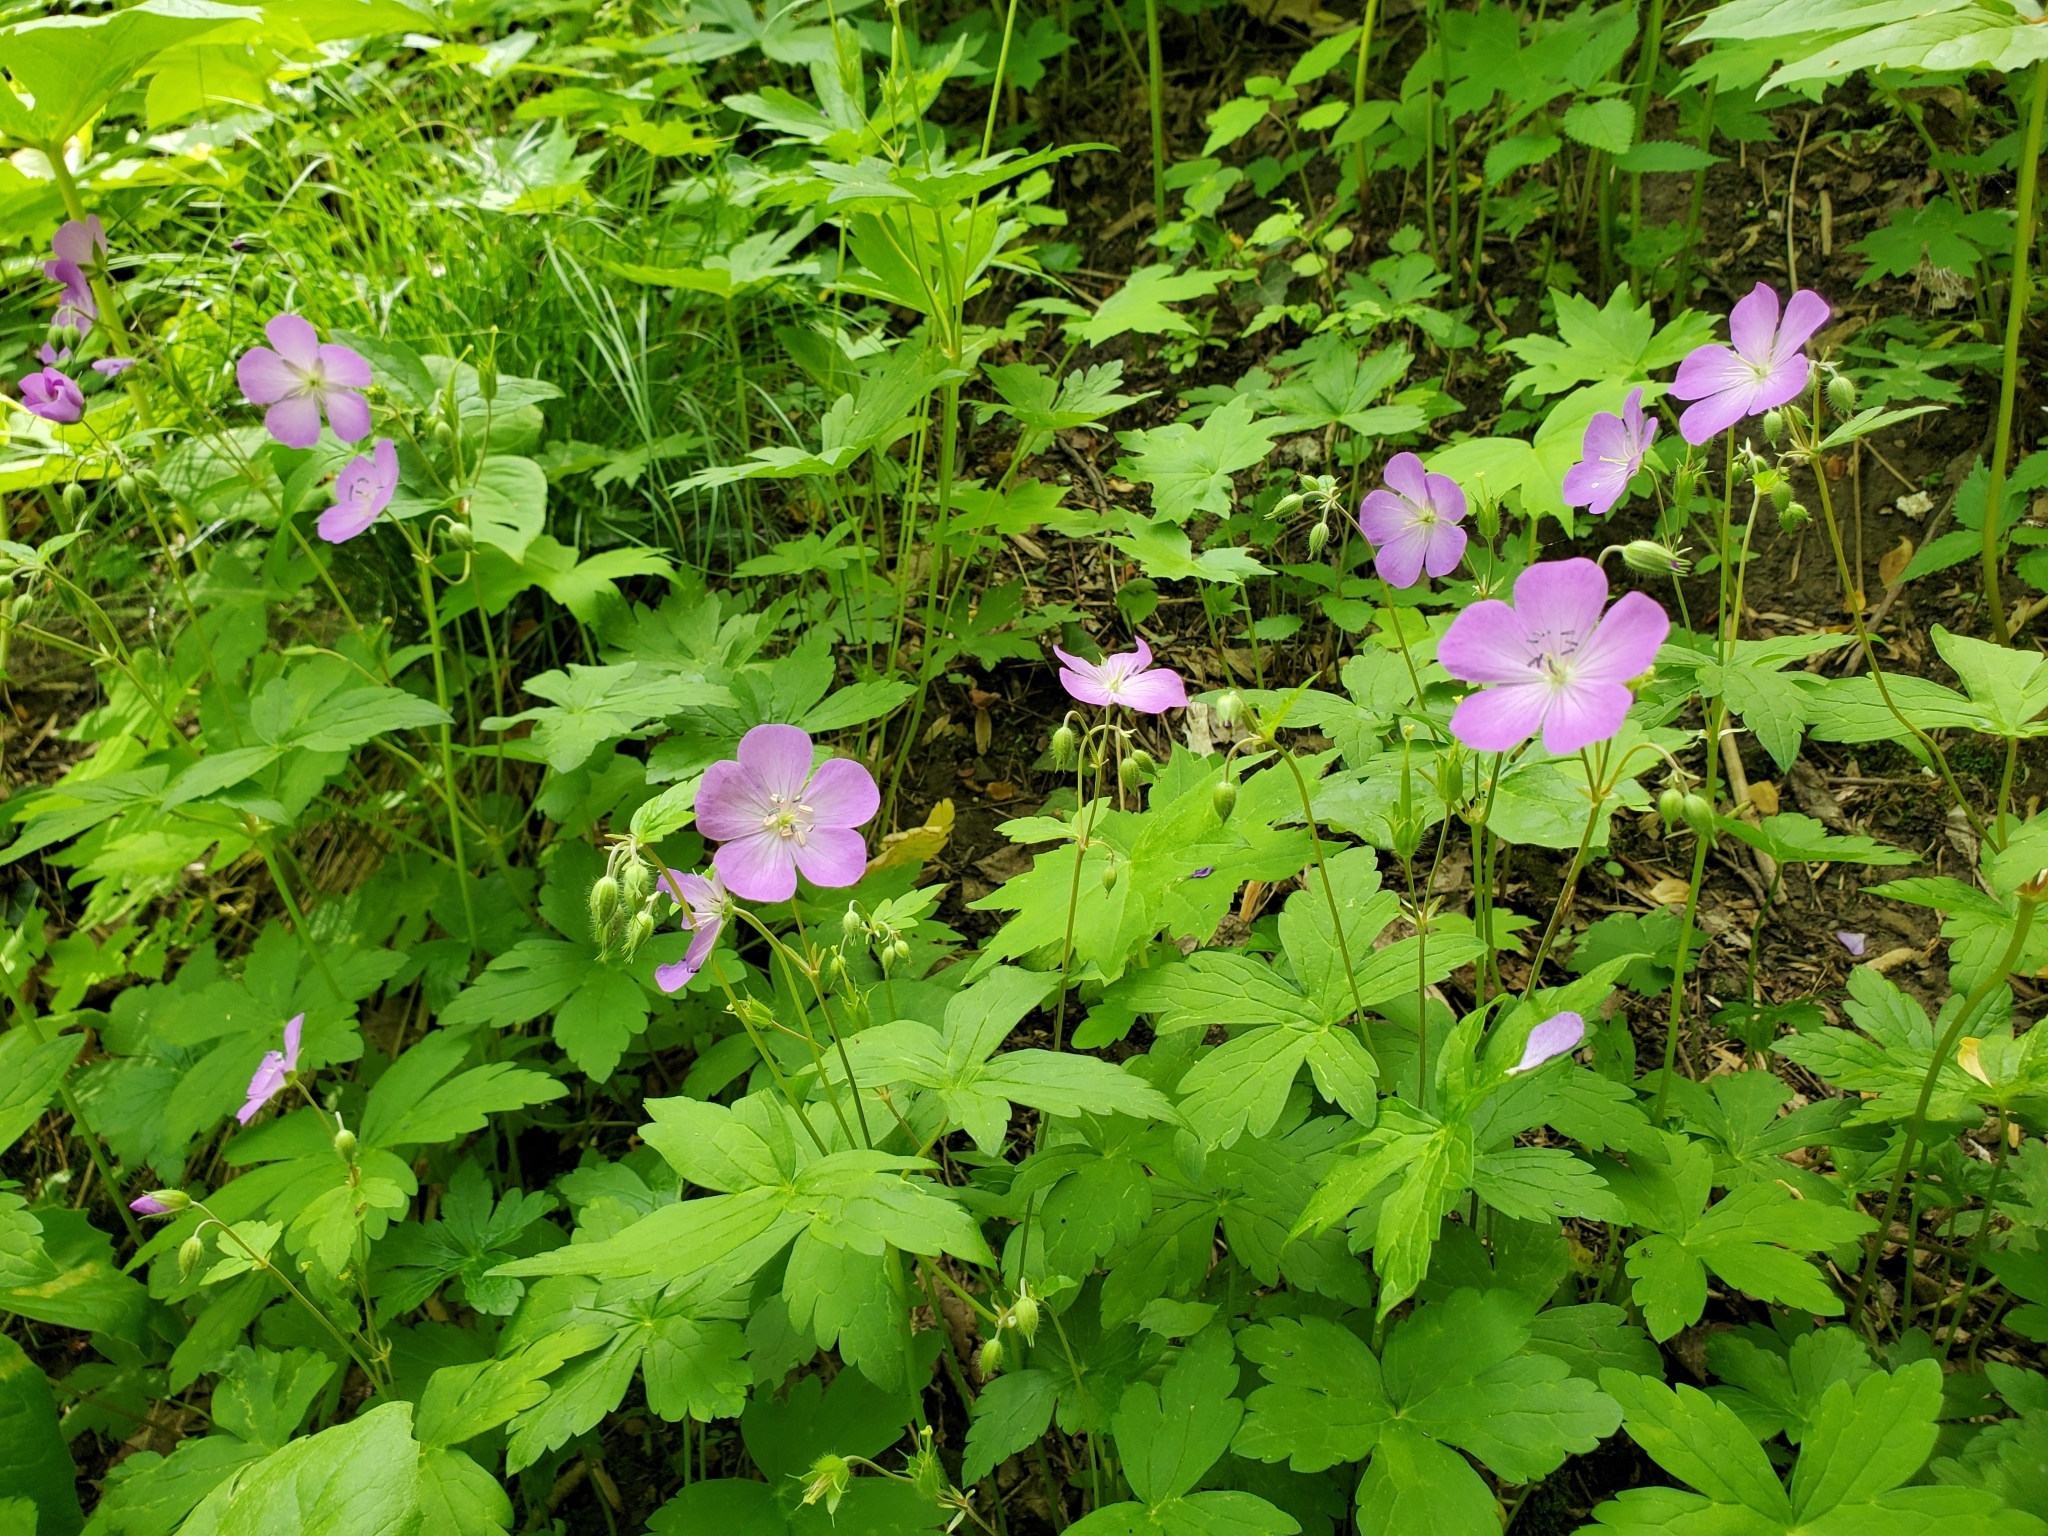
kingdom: Plantae
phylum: Tracheophyta
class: Magnoliopsida
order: Geraniales
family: Geraniaceae
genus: Geranium
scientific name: Geranium maculatum
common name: Spotted geranium
